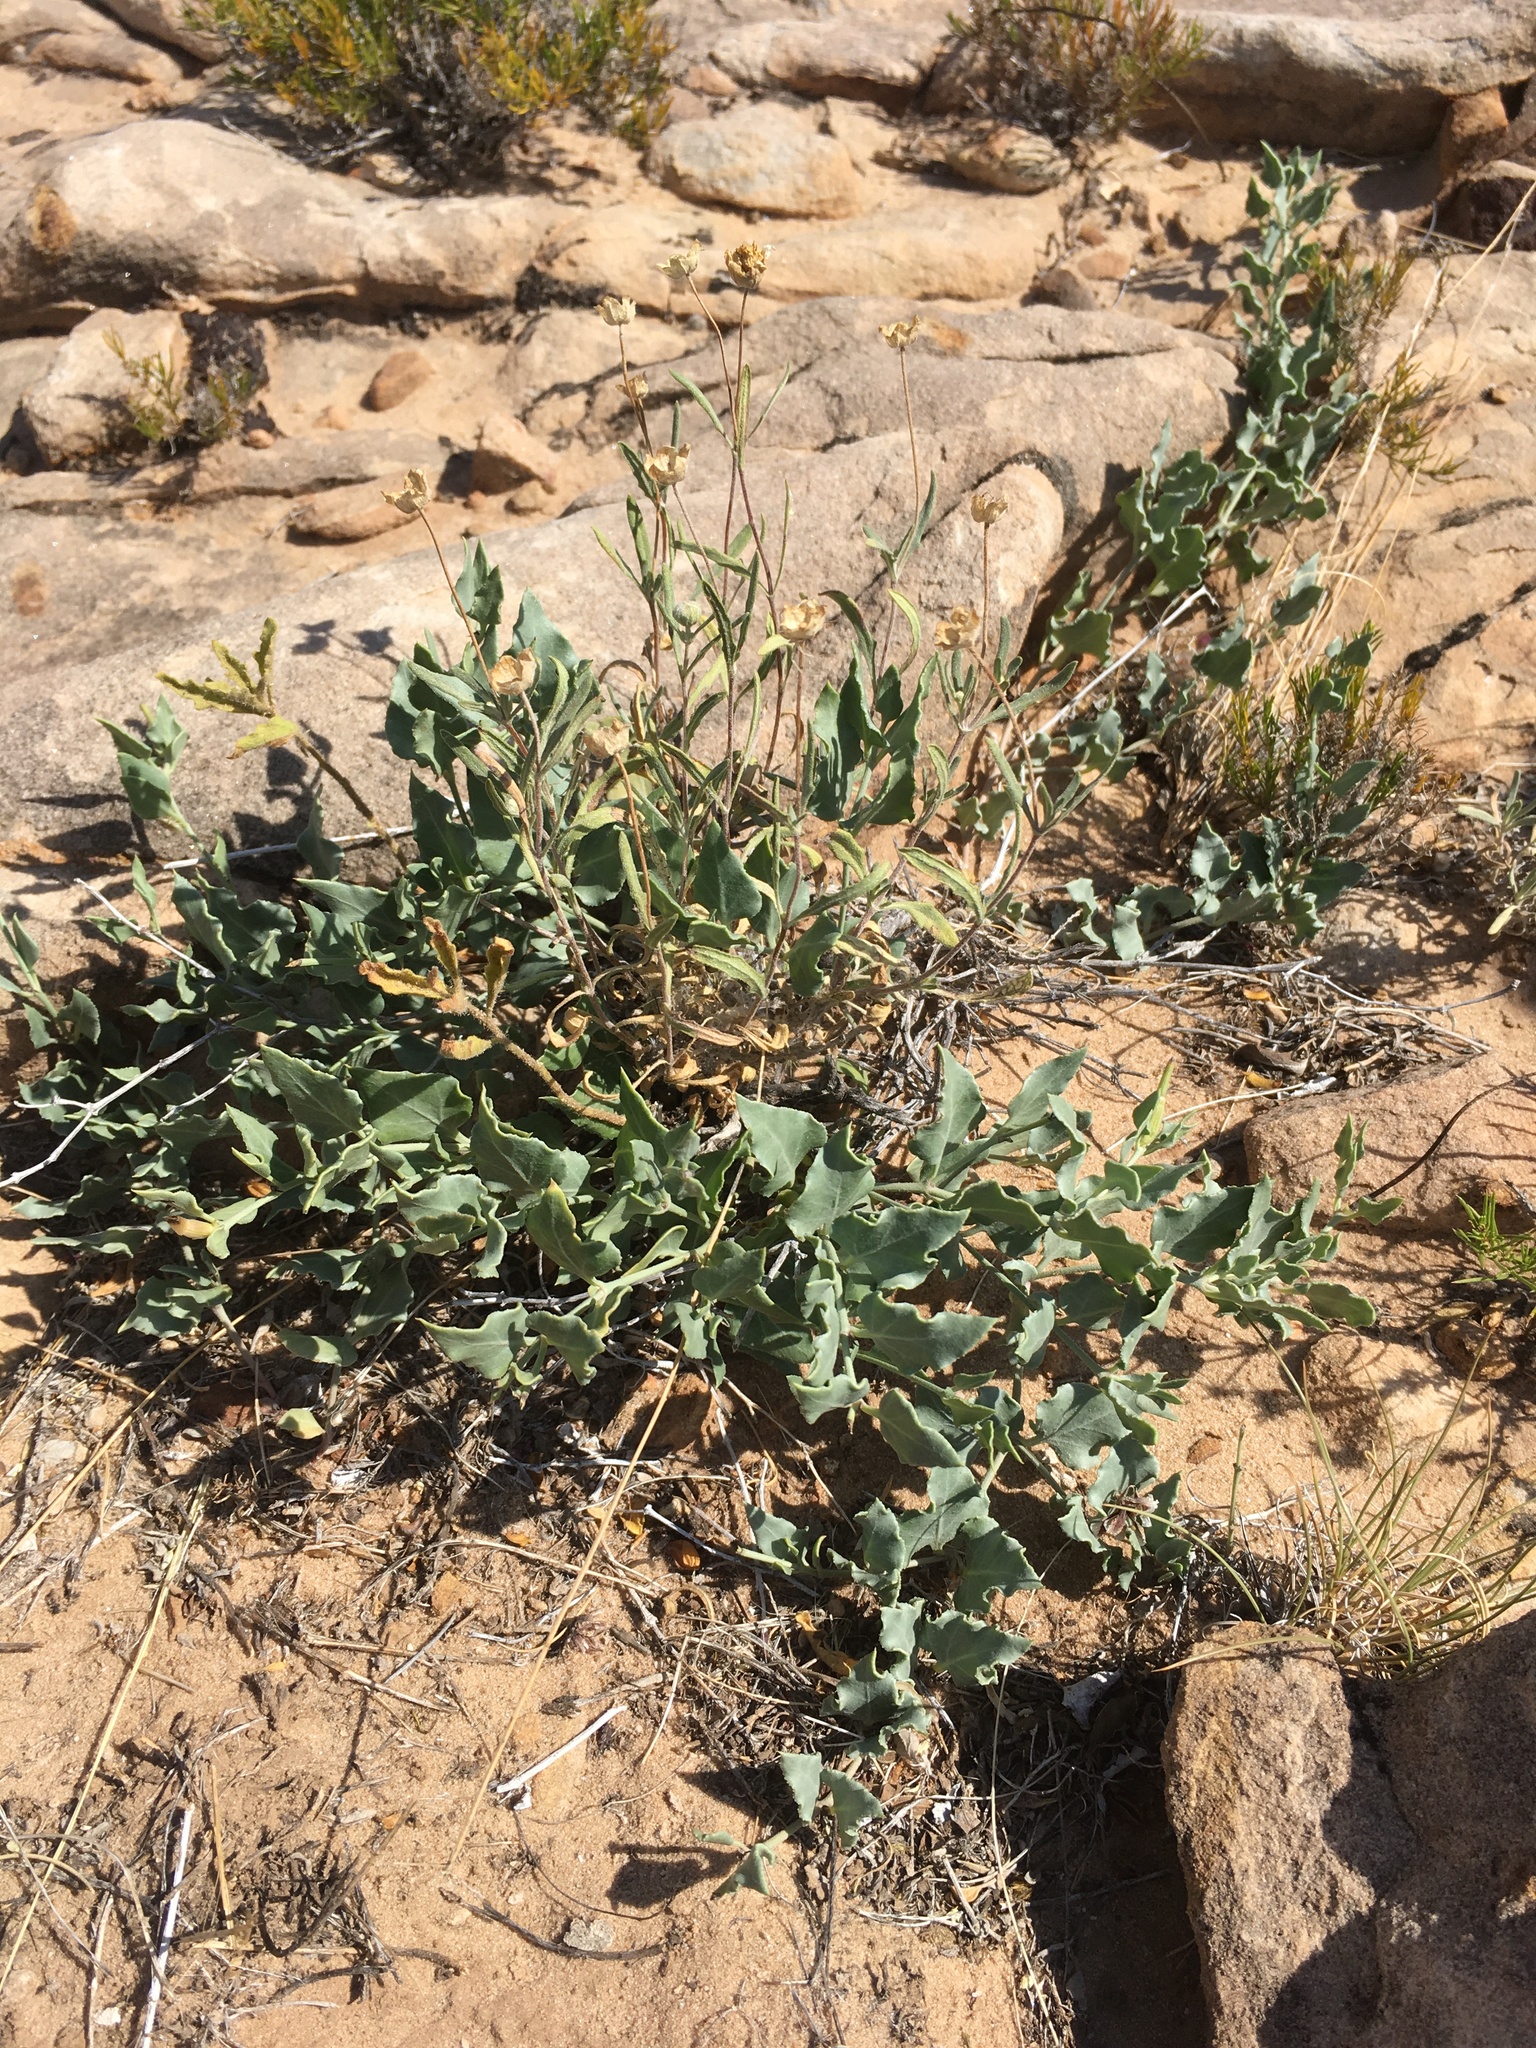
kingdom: Plantae
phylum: Tracheophyta
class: Magnoliopsida
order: Caryophyllales
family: Nyctaginaceae
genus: Acleisanthes
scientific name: Acleisanthes longiflora
